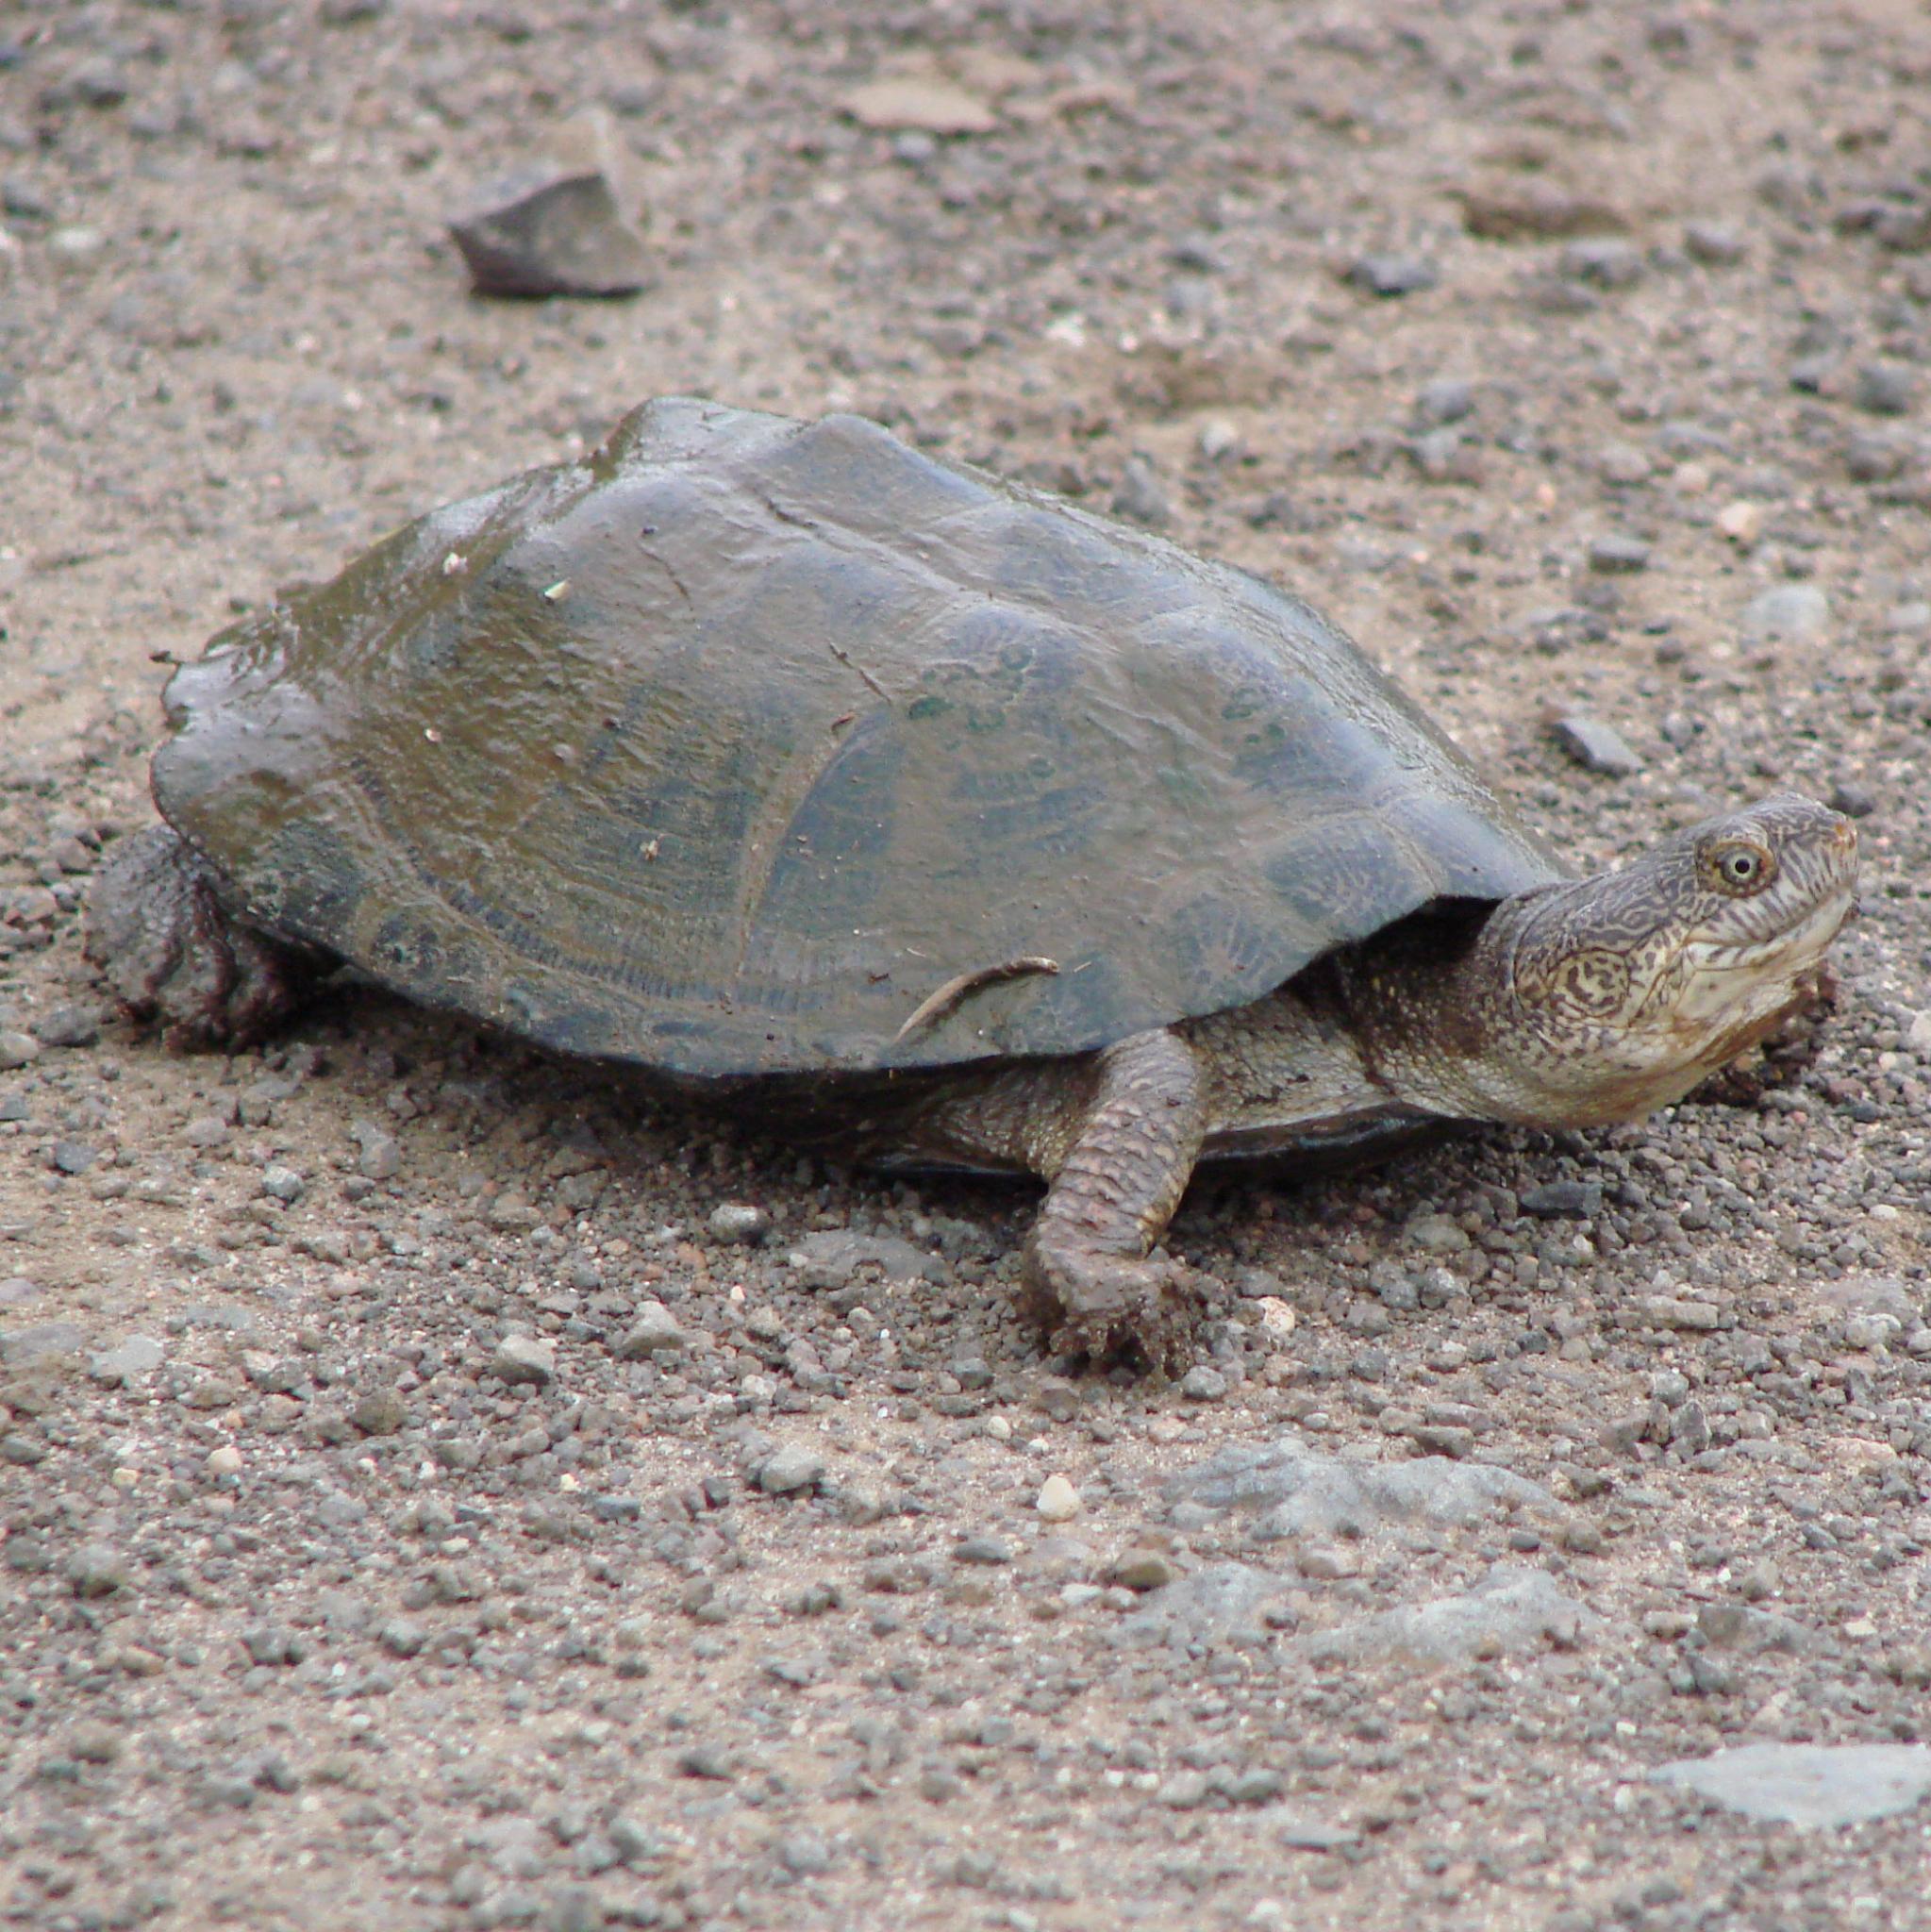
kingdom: Animalia
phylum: Chordata
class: Testudines
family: Pelomedusidae
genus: Pelusios
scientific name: Pelusios sinuatus
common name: Serrated hinged terrapin
